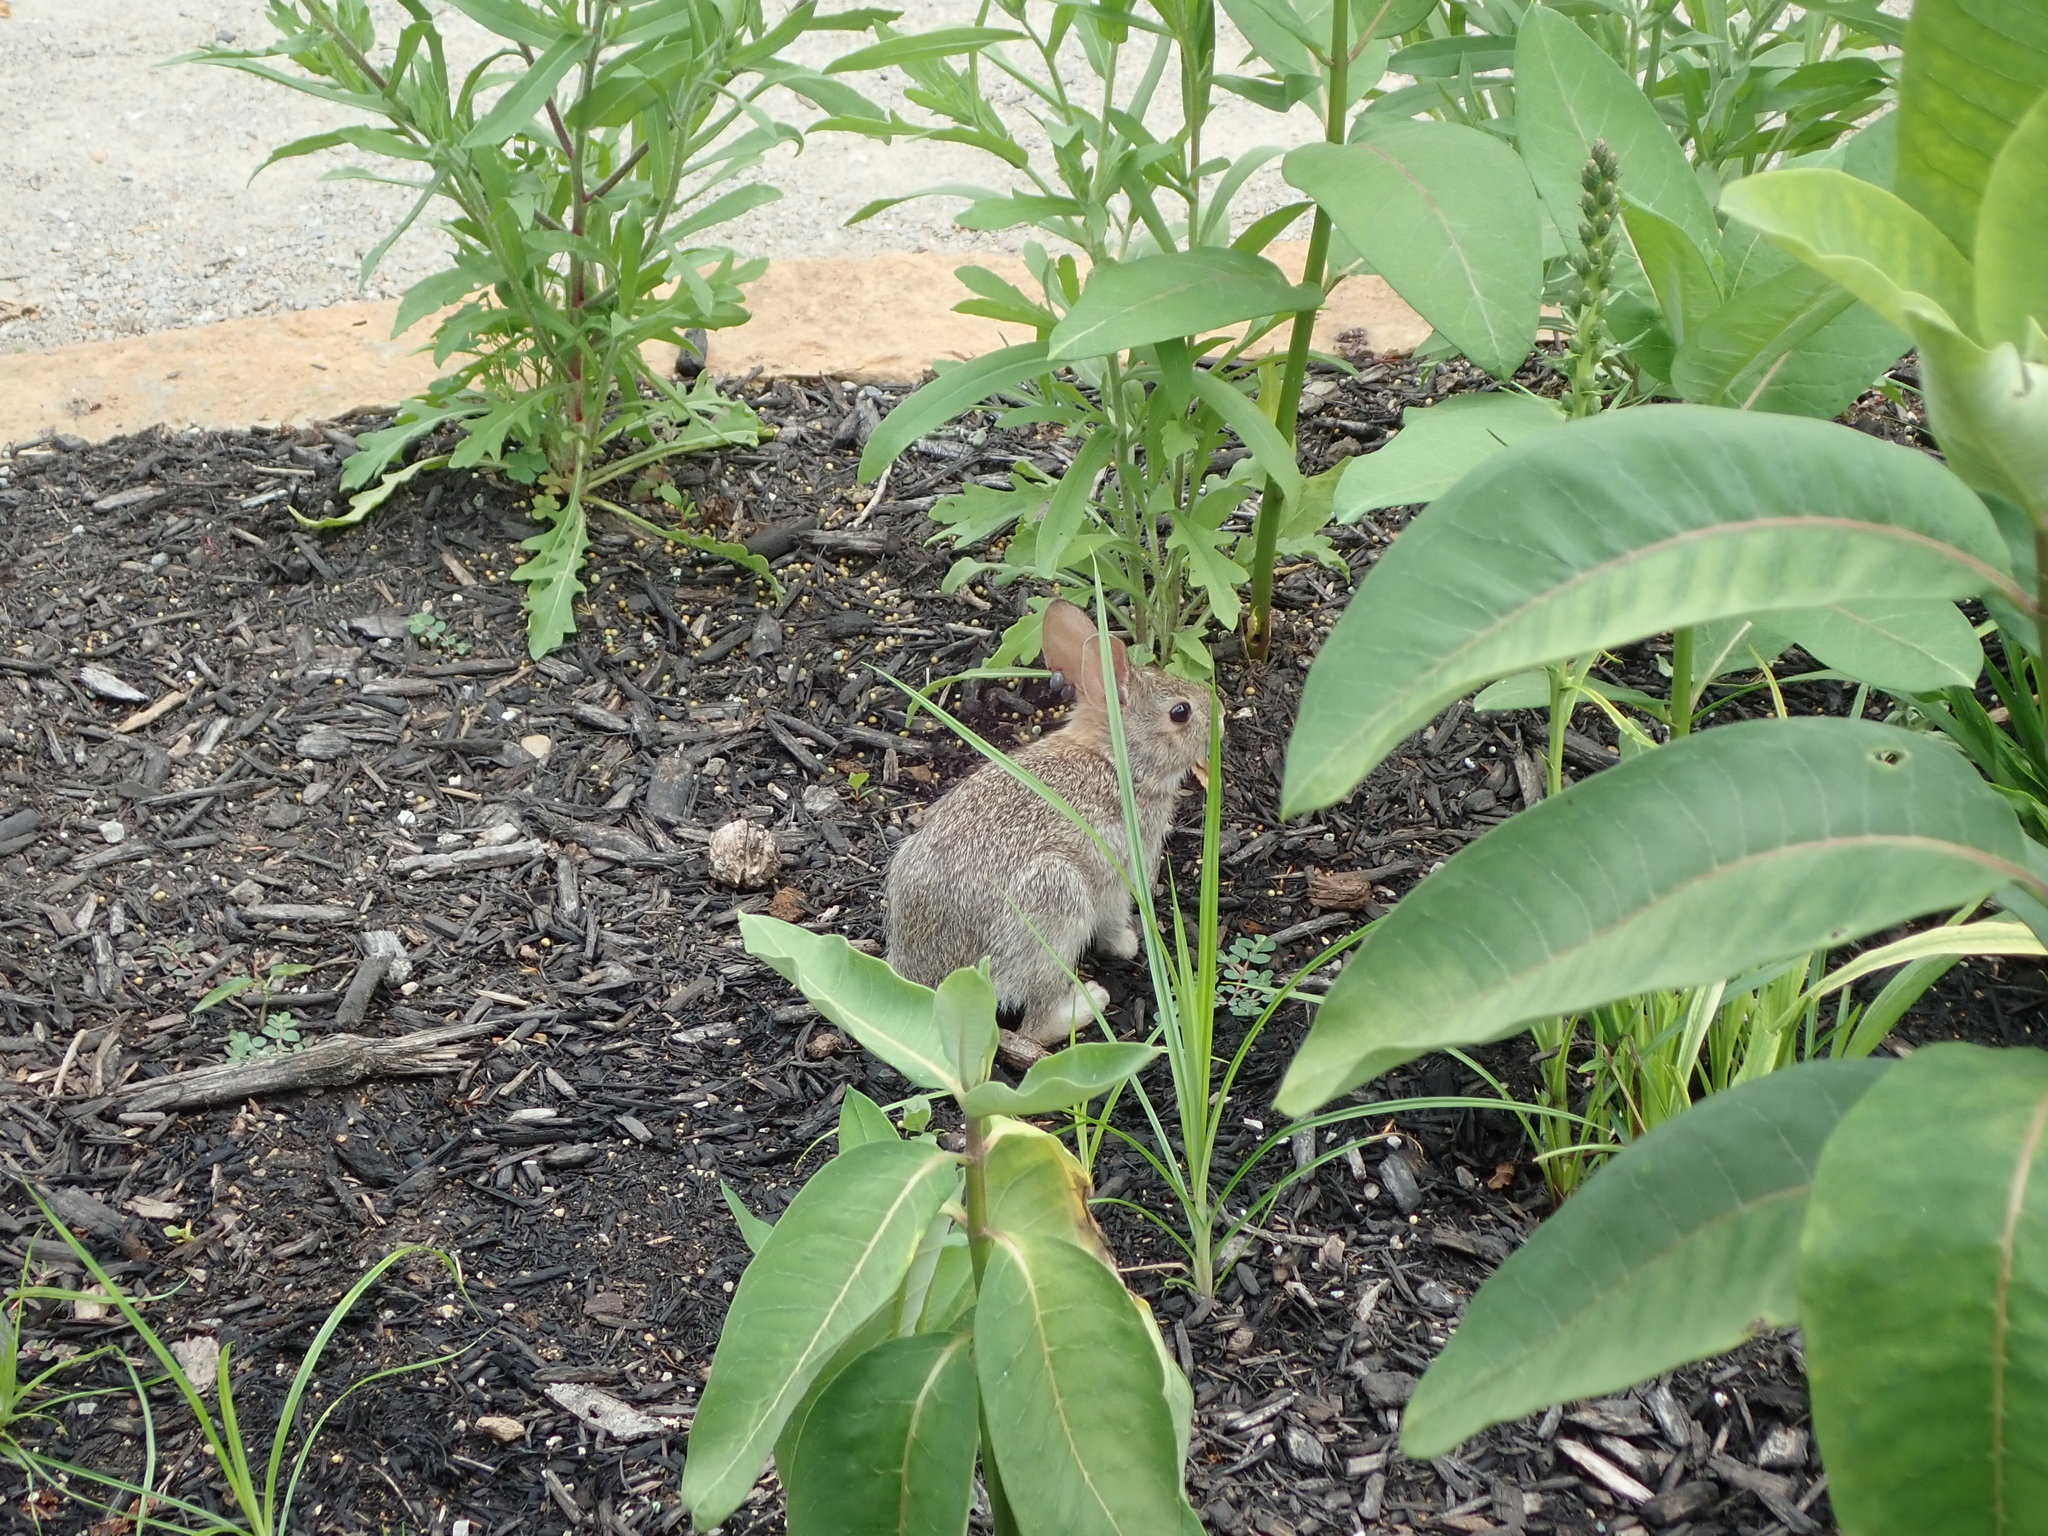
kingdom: Animalia
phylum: Chordata
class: Mammalia
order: Lagomorpha
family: Leporidae
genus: Sylvilagus
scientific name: Sylvilagus floridanus
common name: Eastern cottontail
